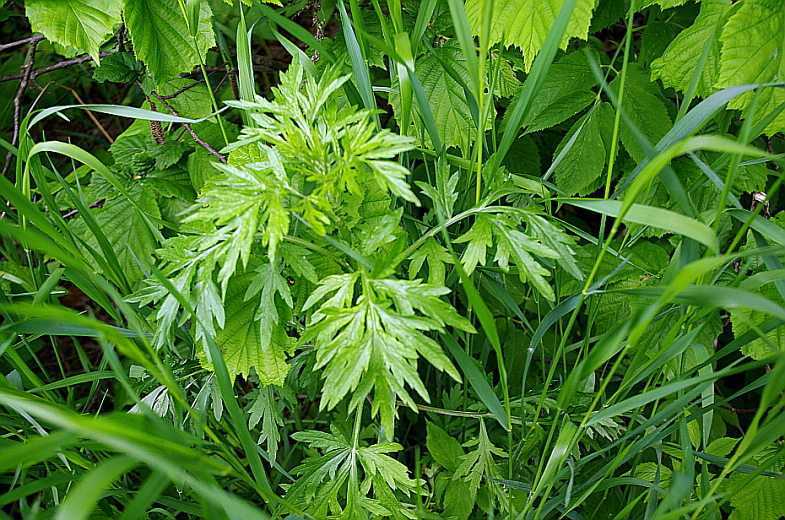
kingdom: Plantae
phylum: Tracheophyta
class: Magnoliopsida
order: Asterales
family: Asteraceae
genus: Artemisia
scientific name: Artemisia vulgaris
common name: Mugwort
